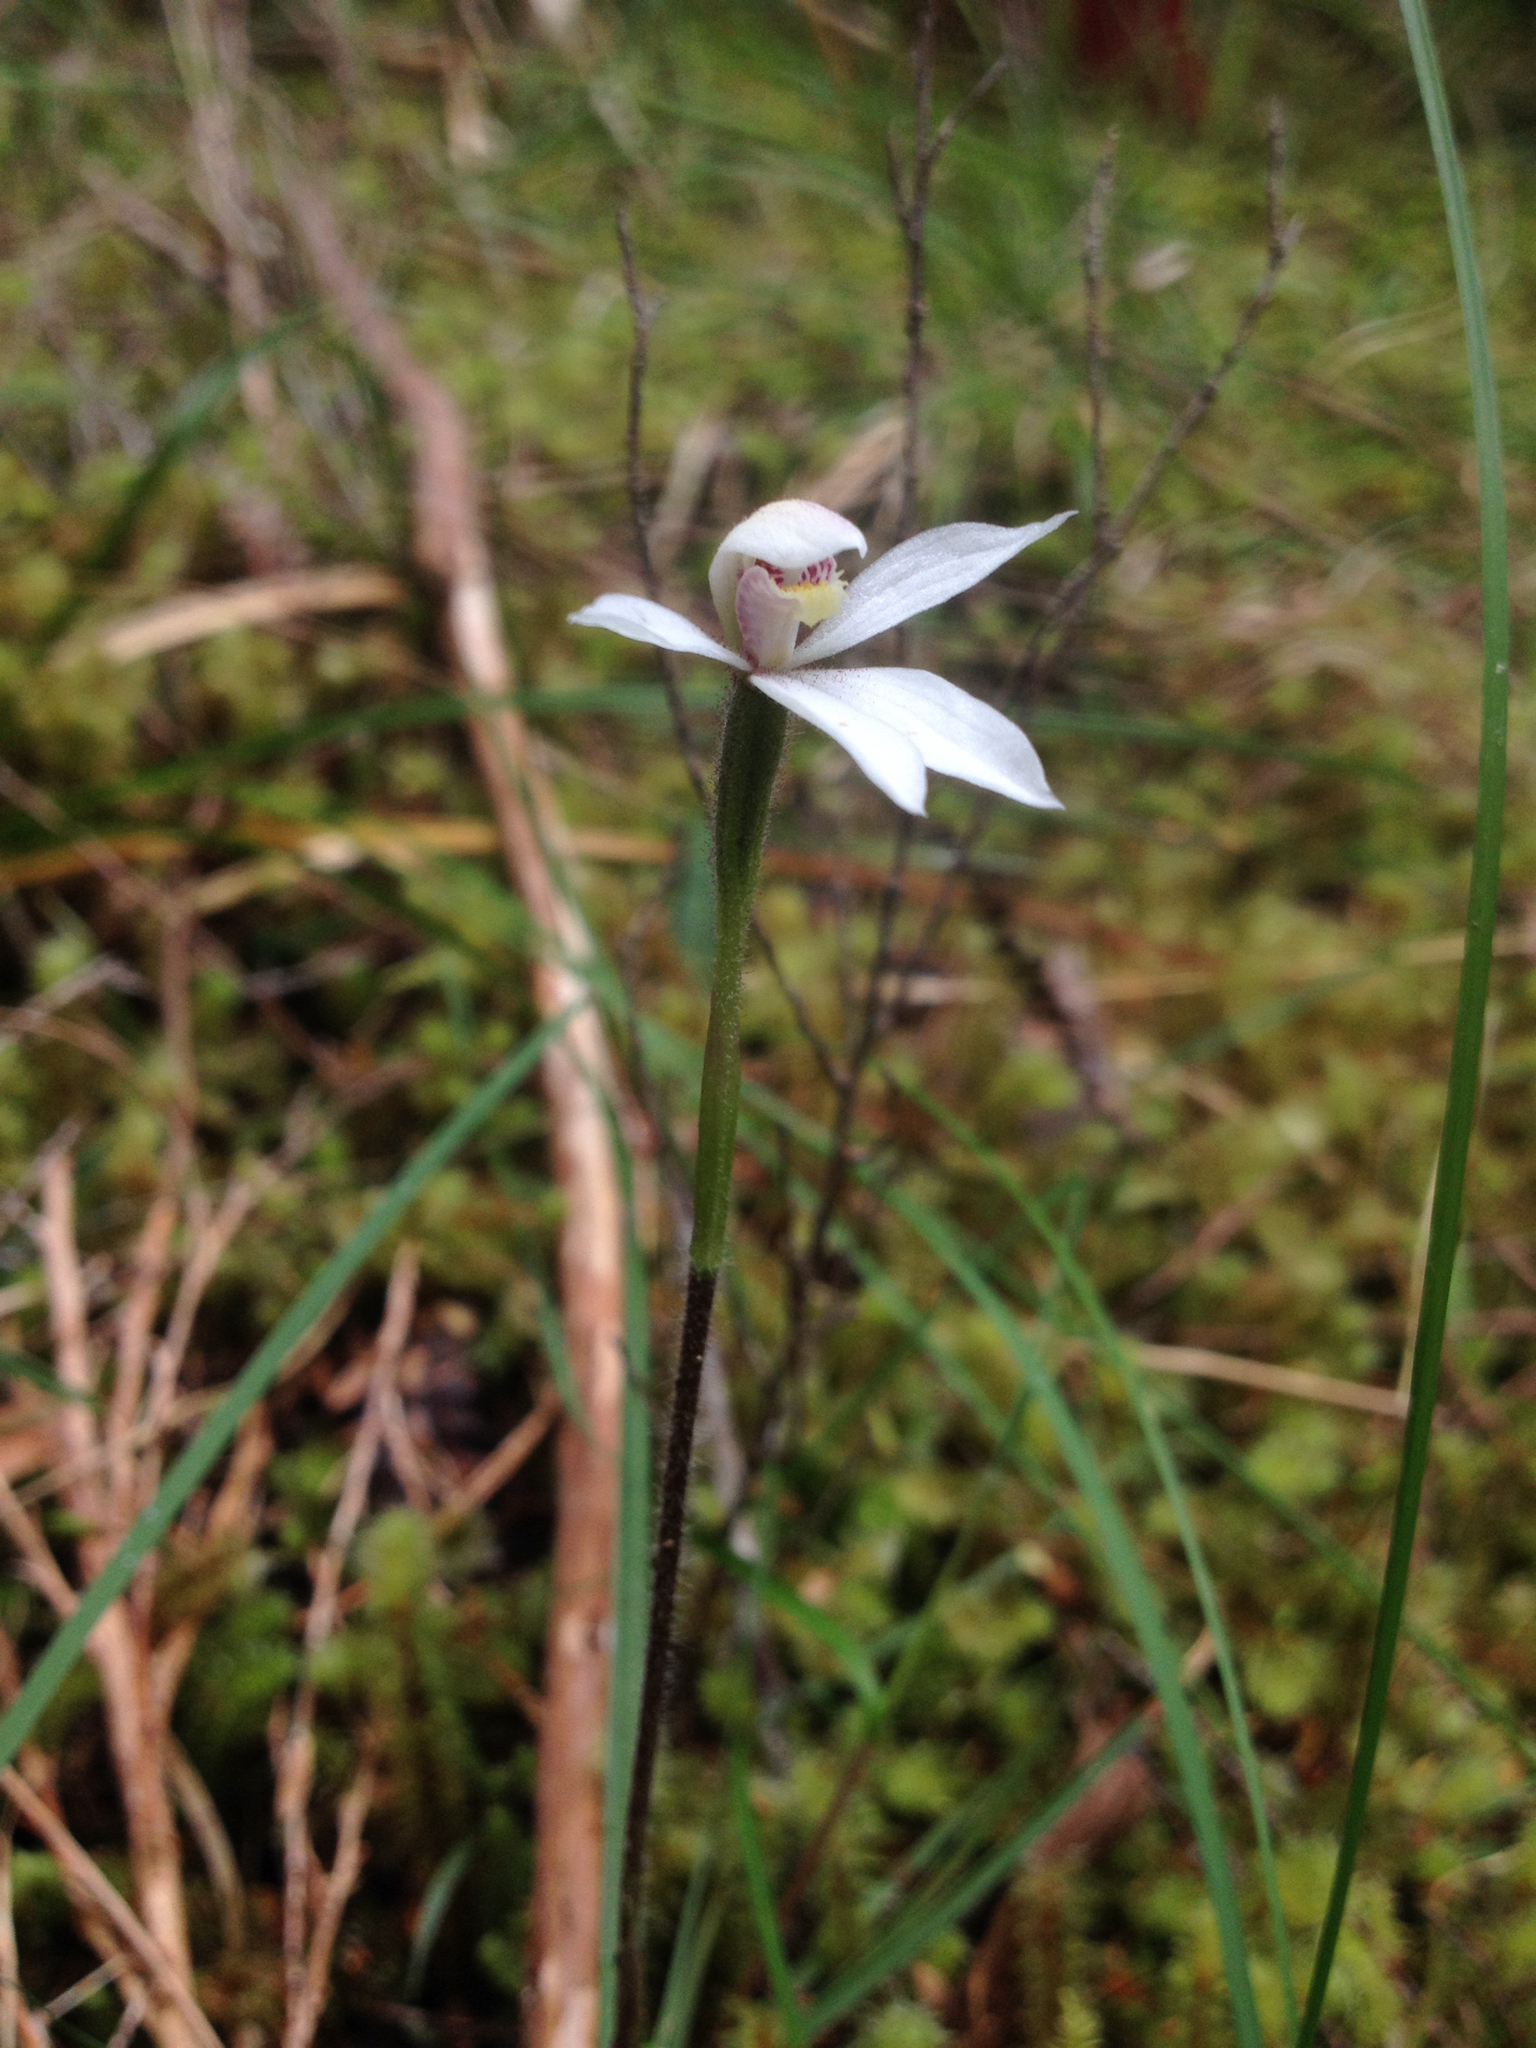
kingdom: Plantae
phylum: Tracheophyta
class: Liliopsida
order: Asparagales
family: Orchidaceae
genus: Caladenia
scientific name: Caladenia lyallii
